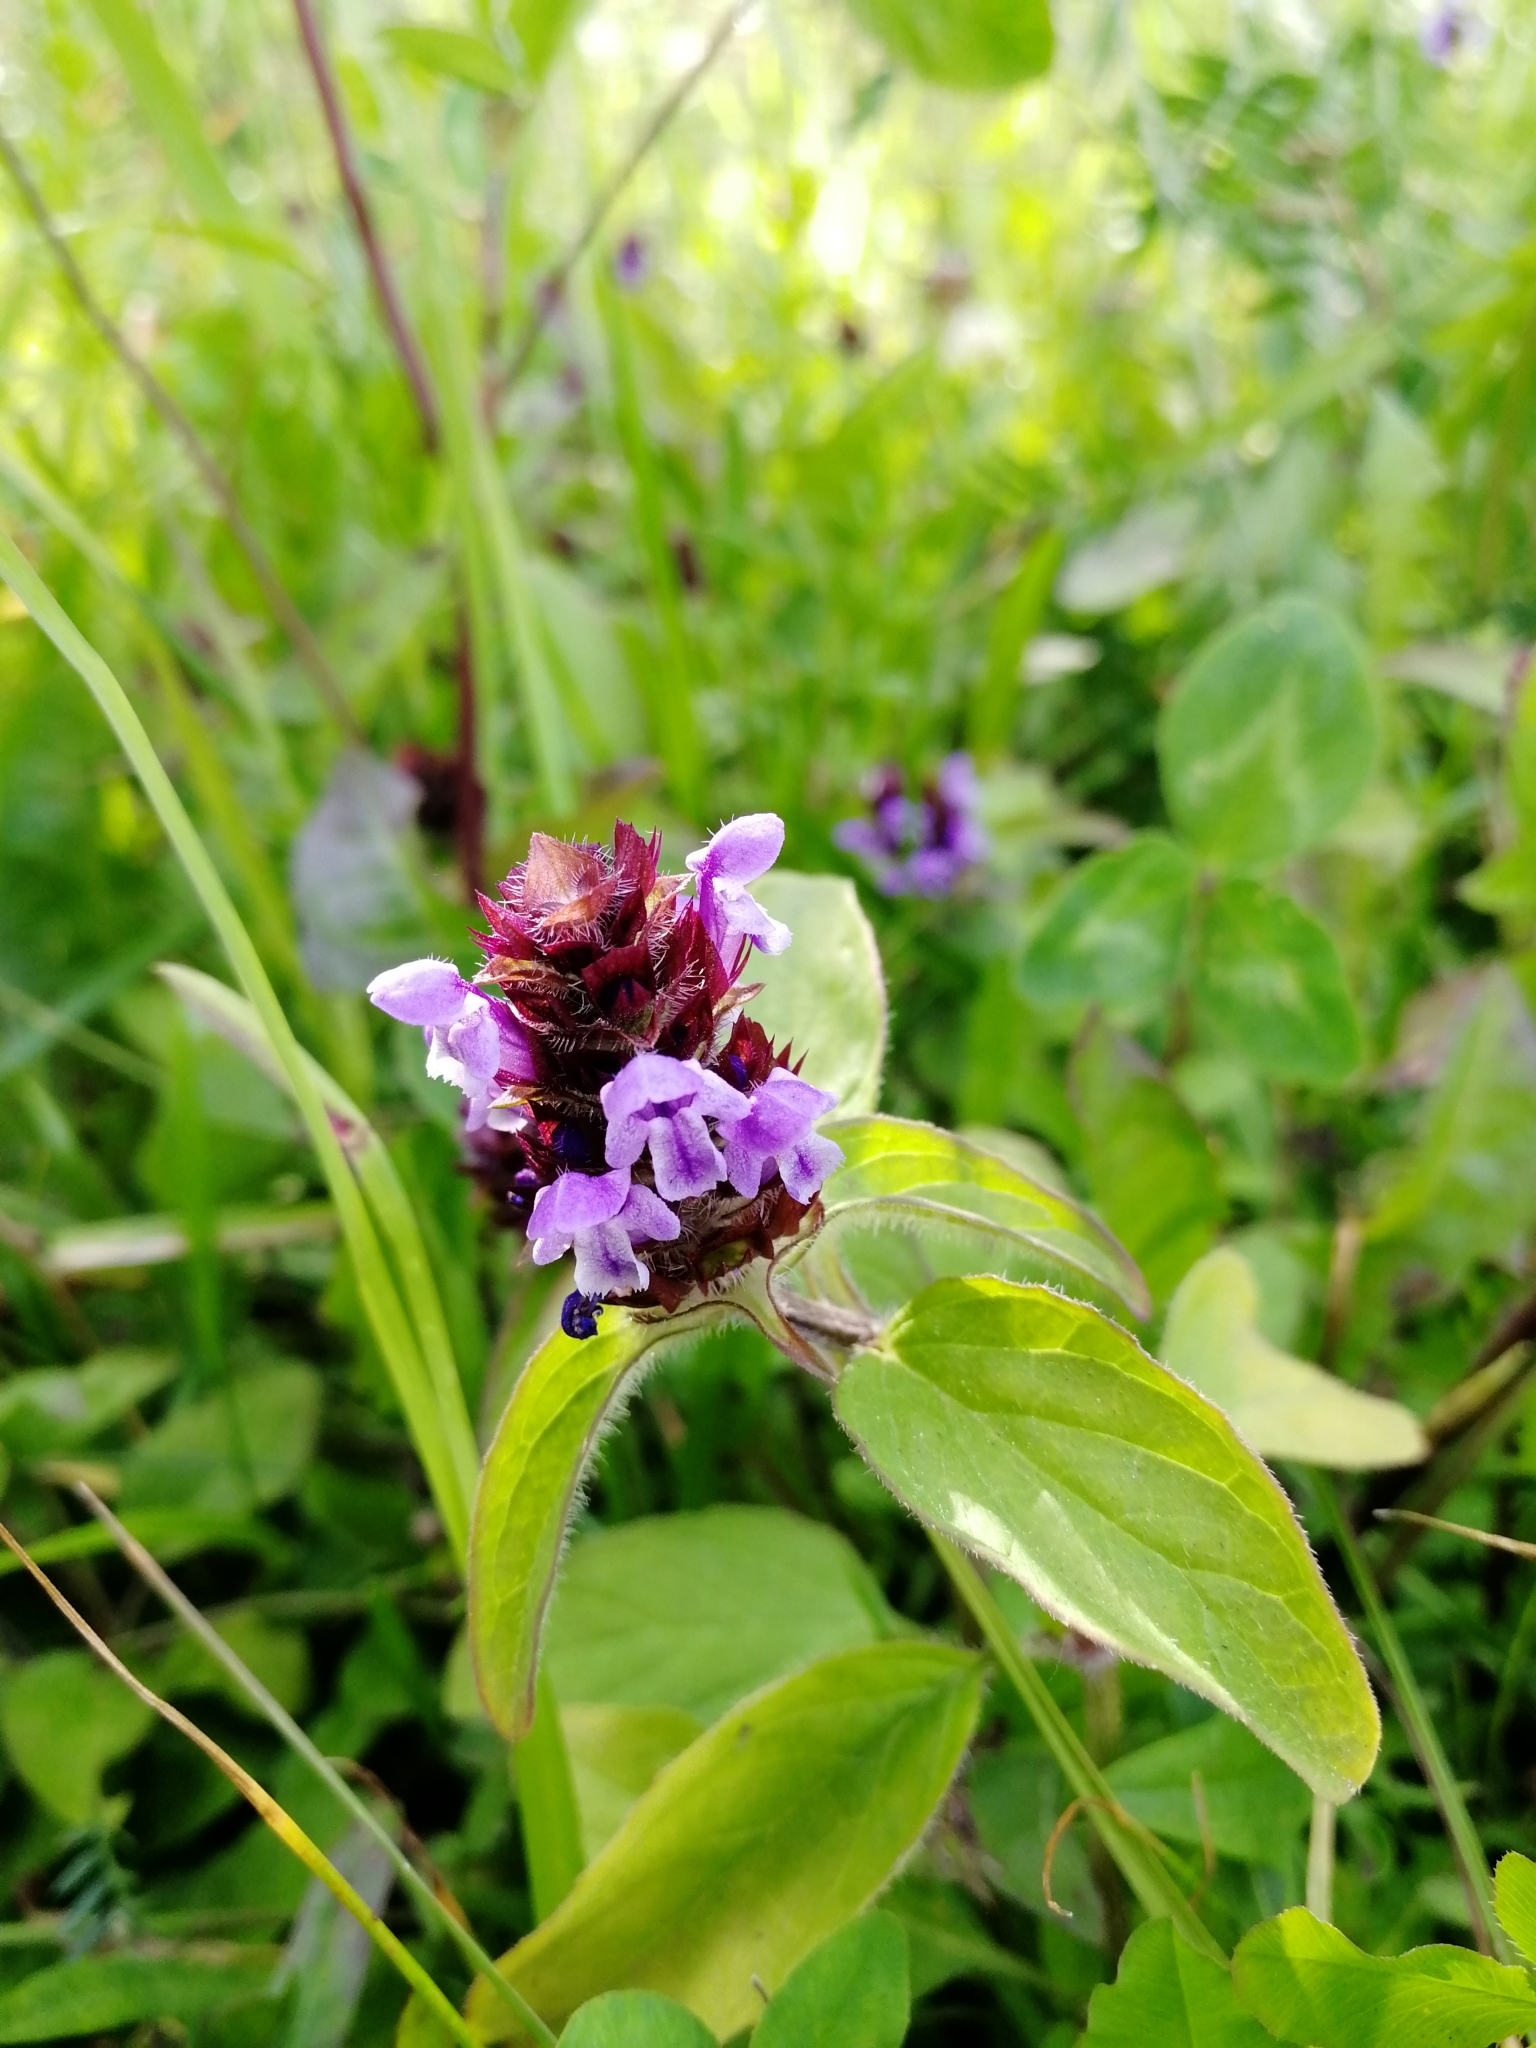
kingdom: Plantae
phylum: Tracheophyta
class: Magnoliopsida
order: Lamiales
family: Lamiaceae
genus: Prunella
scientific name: Prunella vulgaris
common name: Heal-all
